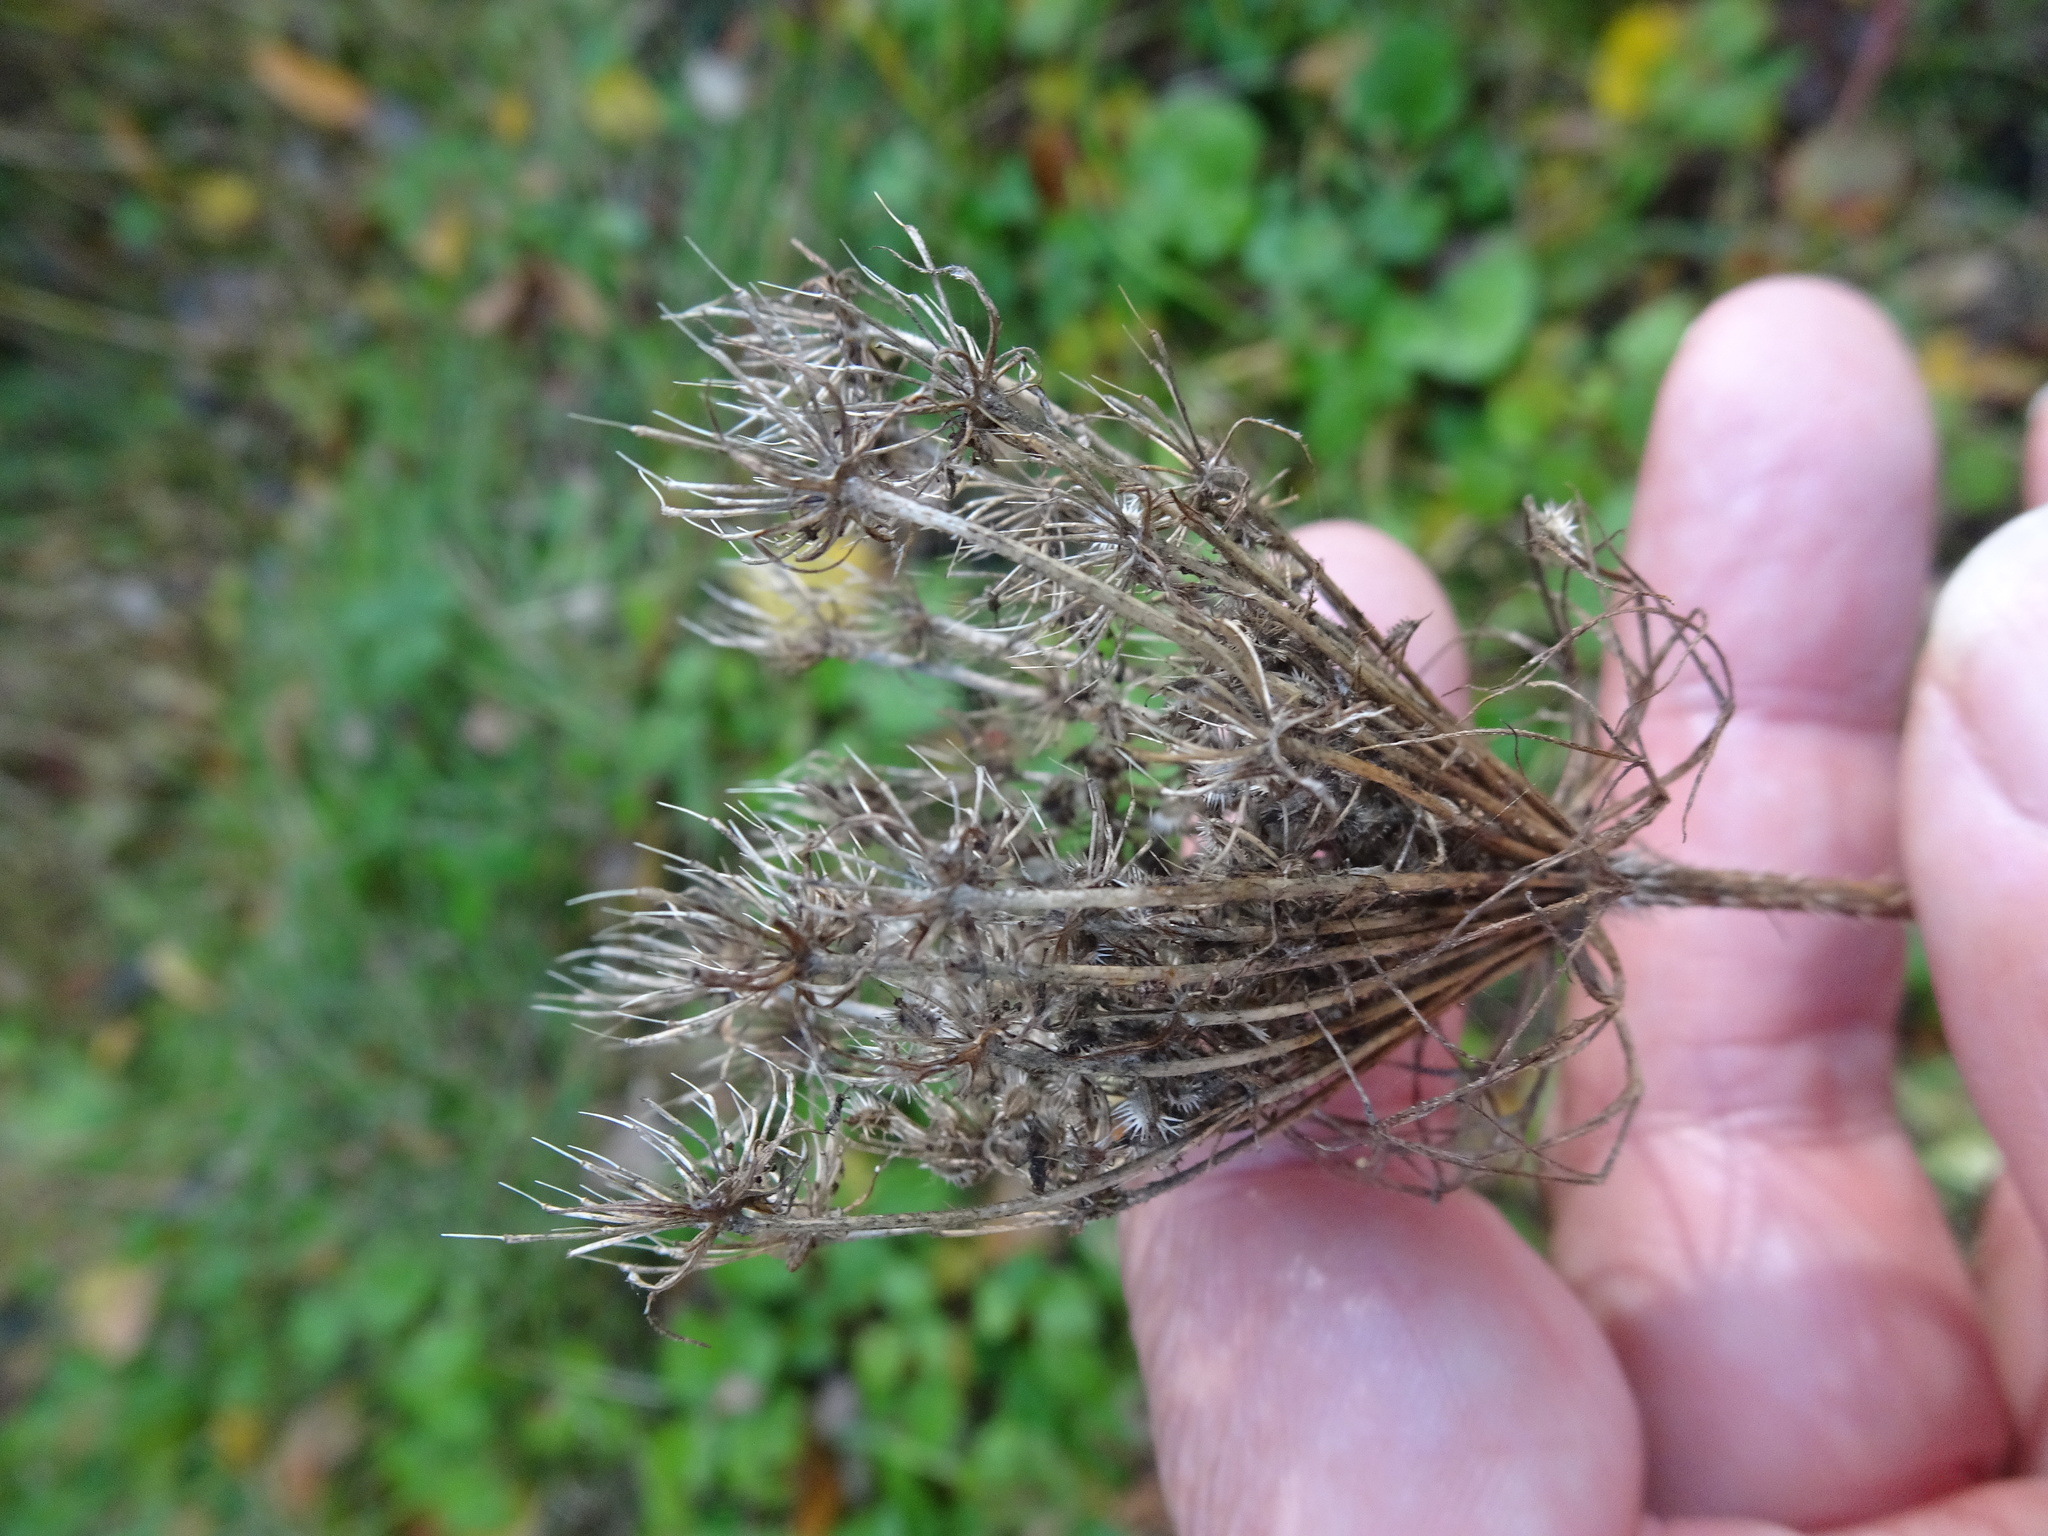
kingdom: Plantae
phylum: Tracheophyta
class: Magnoliopsida
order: Apiales
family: Apiaceae
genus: Daucus
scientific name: Daucus carota
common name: Wild carrot
